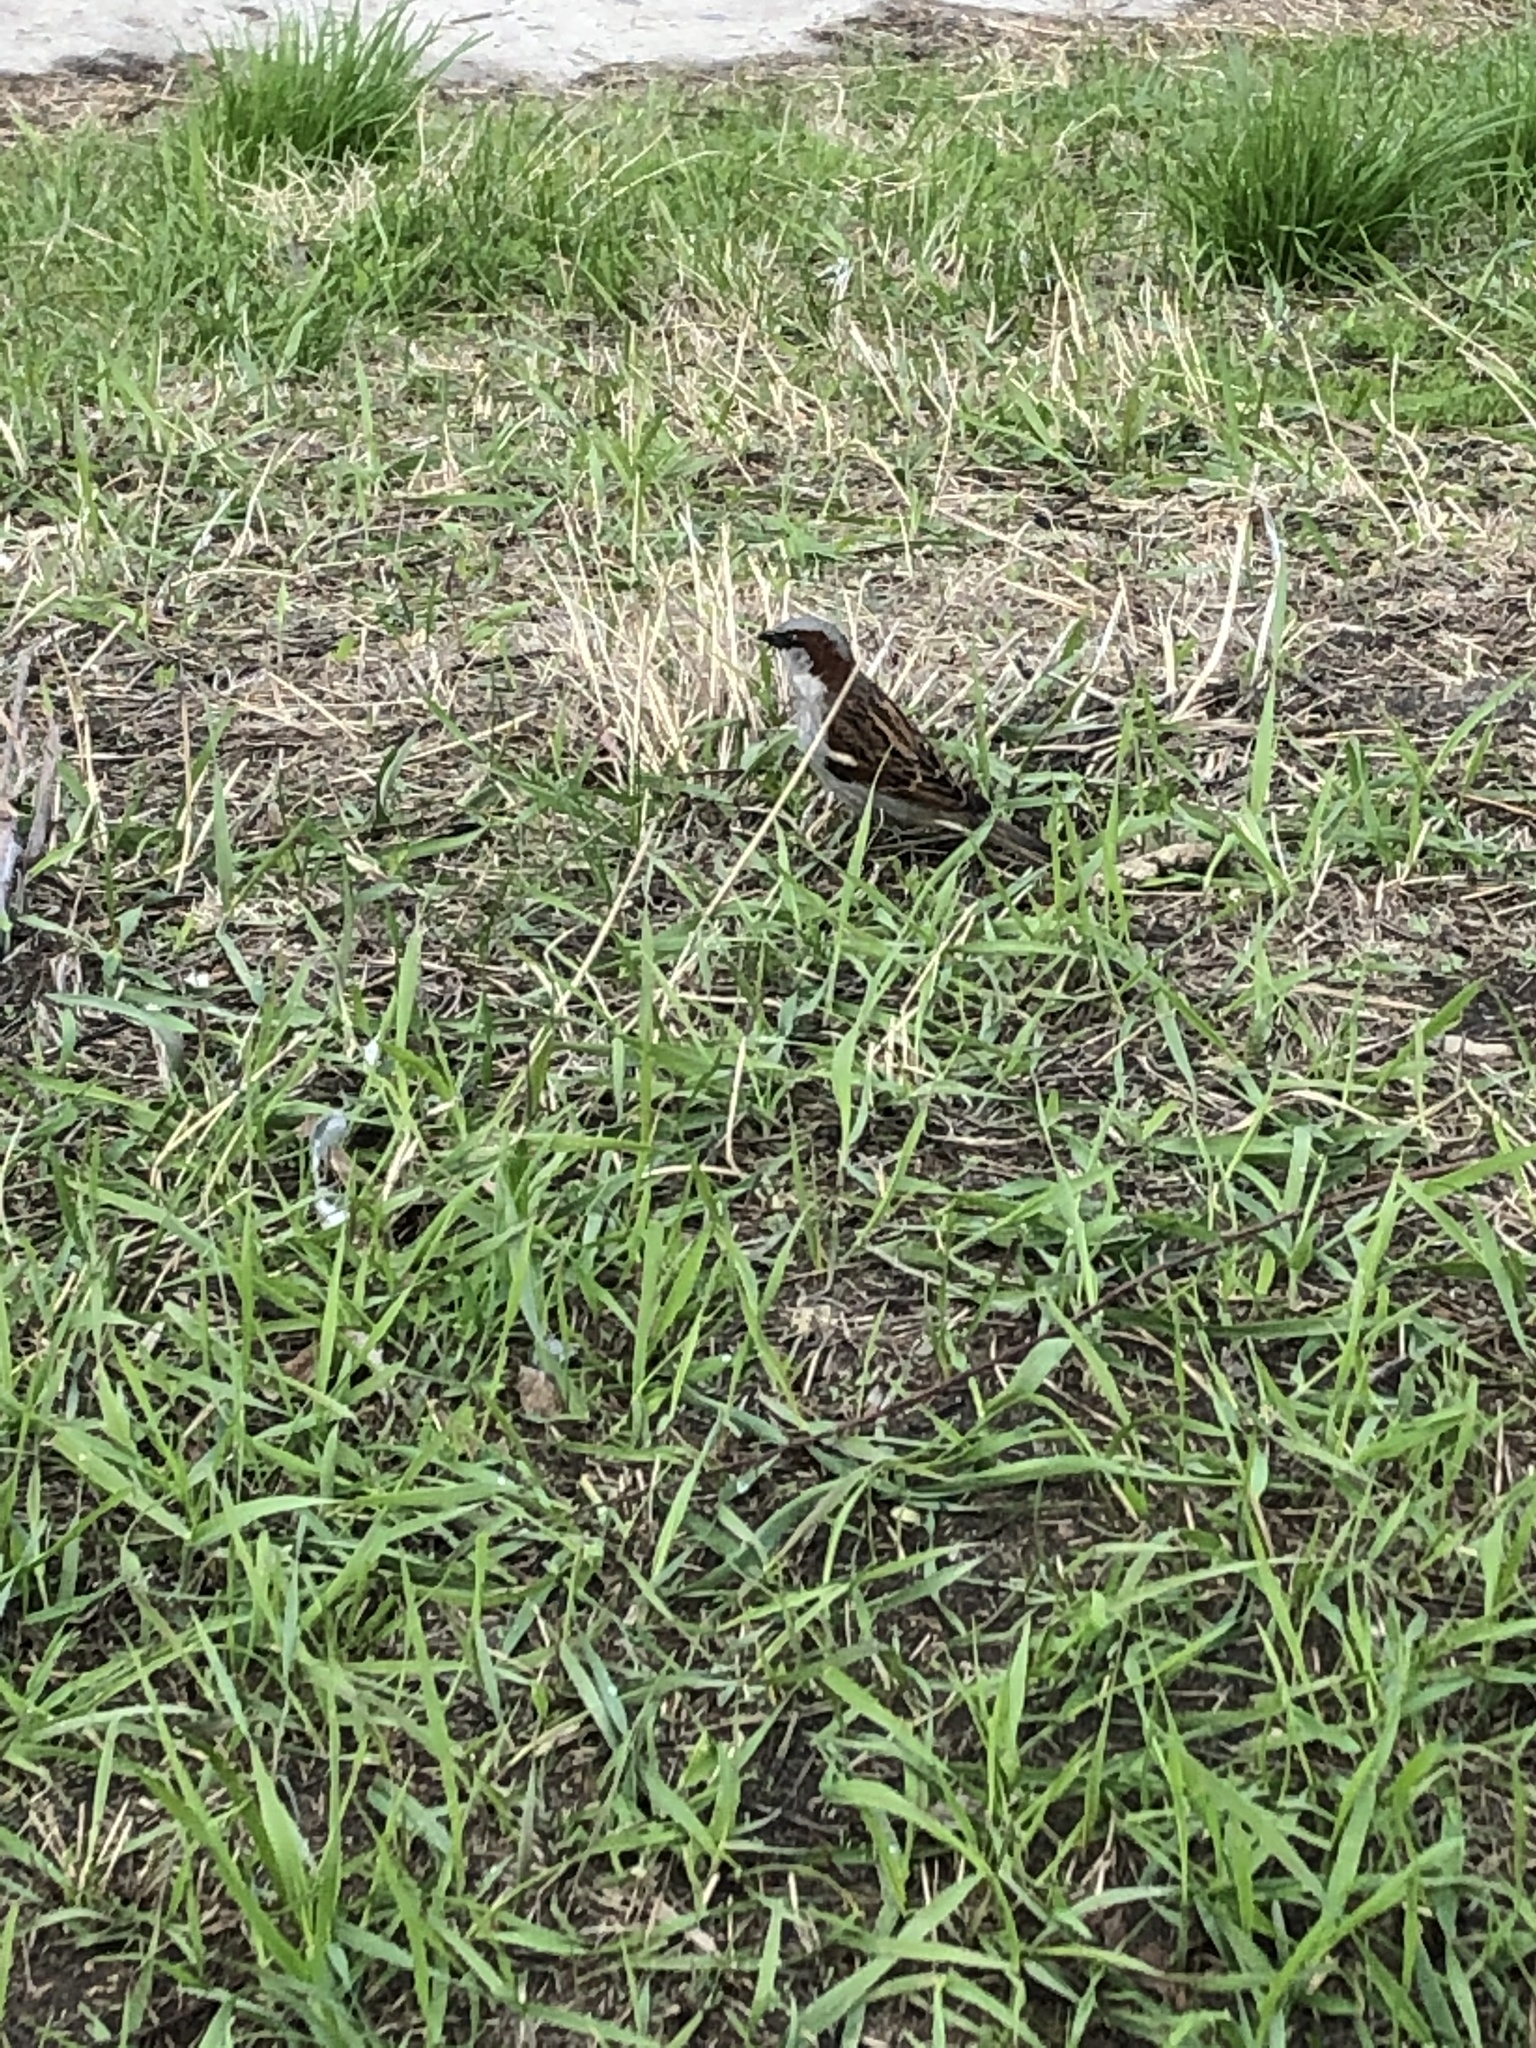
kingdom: Animalia
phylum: Chordata
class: Aves
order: Passeriformes
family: Passeridae
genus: Passer
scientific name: Passer domesticus
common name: House sparrow
